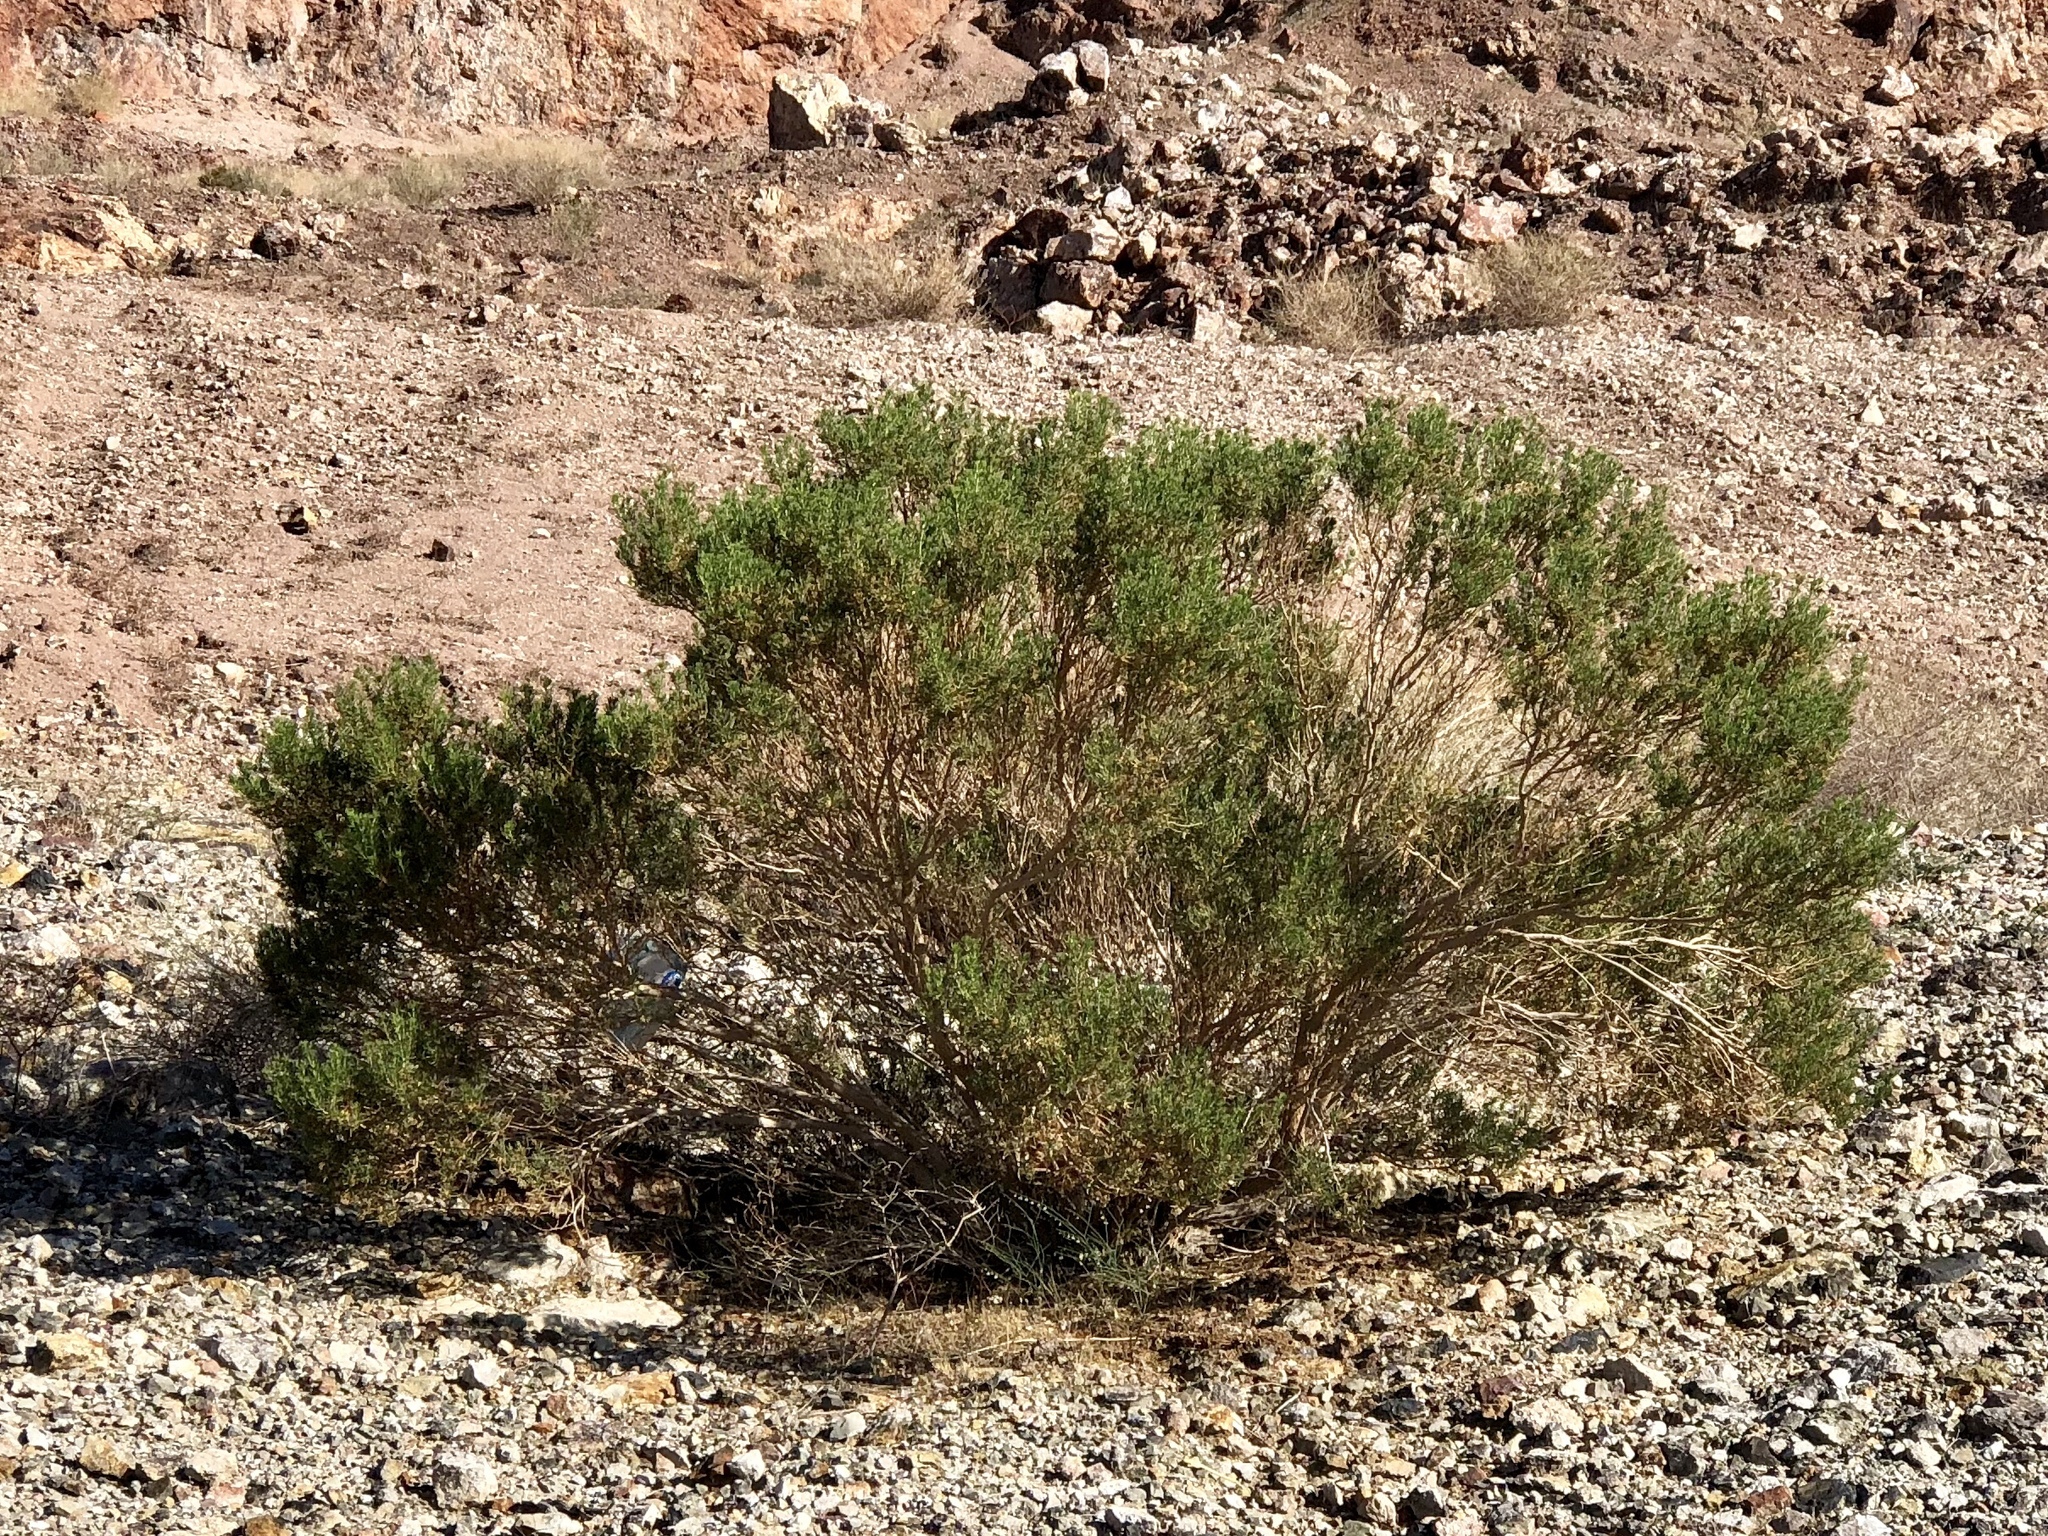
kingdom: Plantae
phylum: Tracheophyta
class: Magnoliopsida
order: Asterales
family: Asteraceae
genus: Peucephyllum
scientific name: Peucephyllum schottii
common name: Pygmy-cedar
